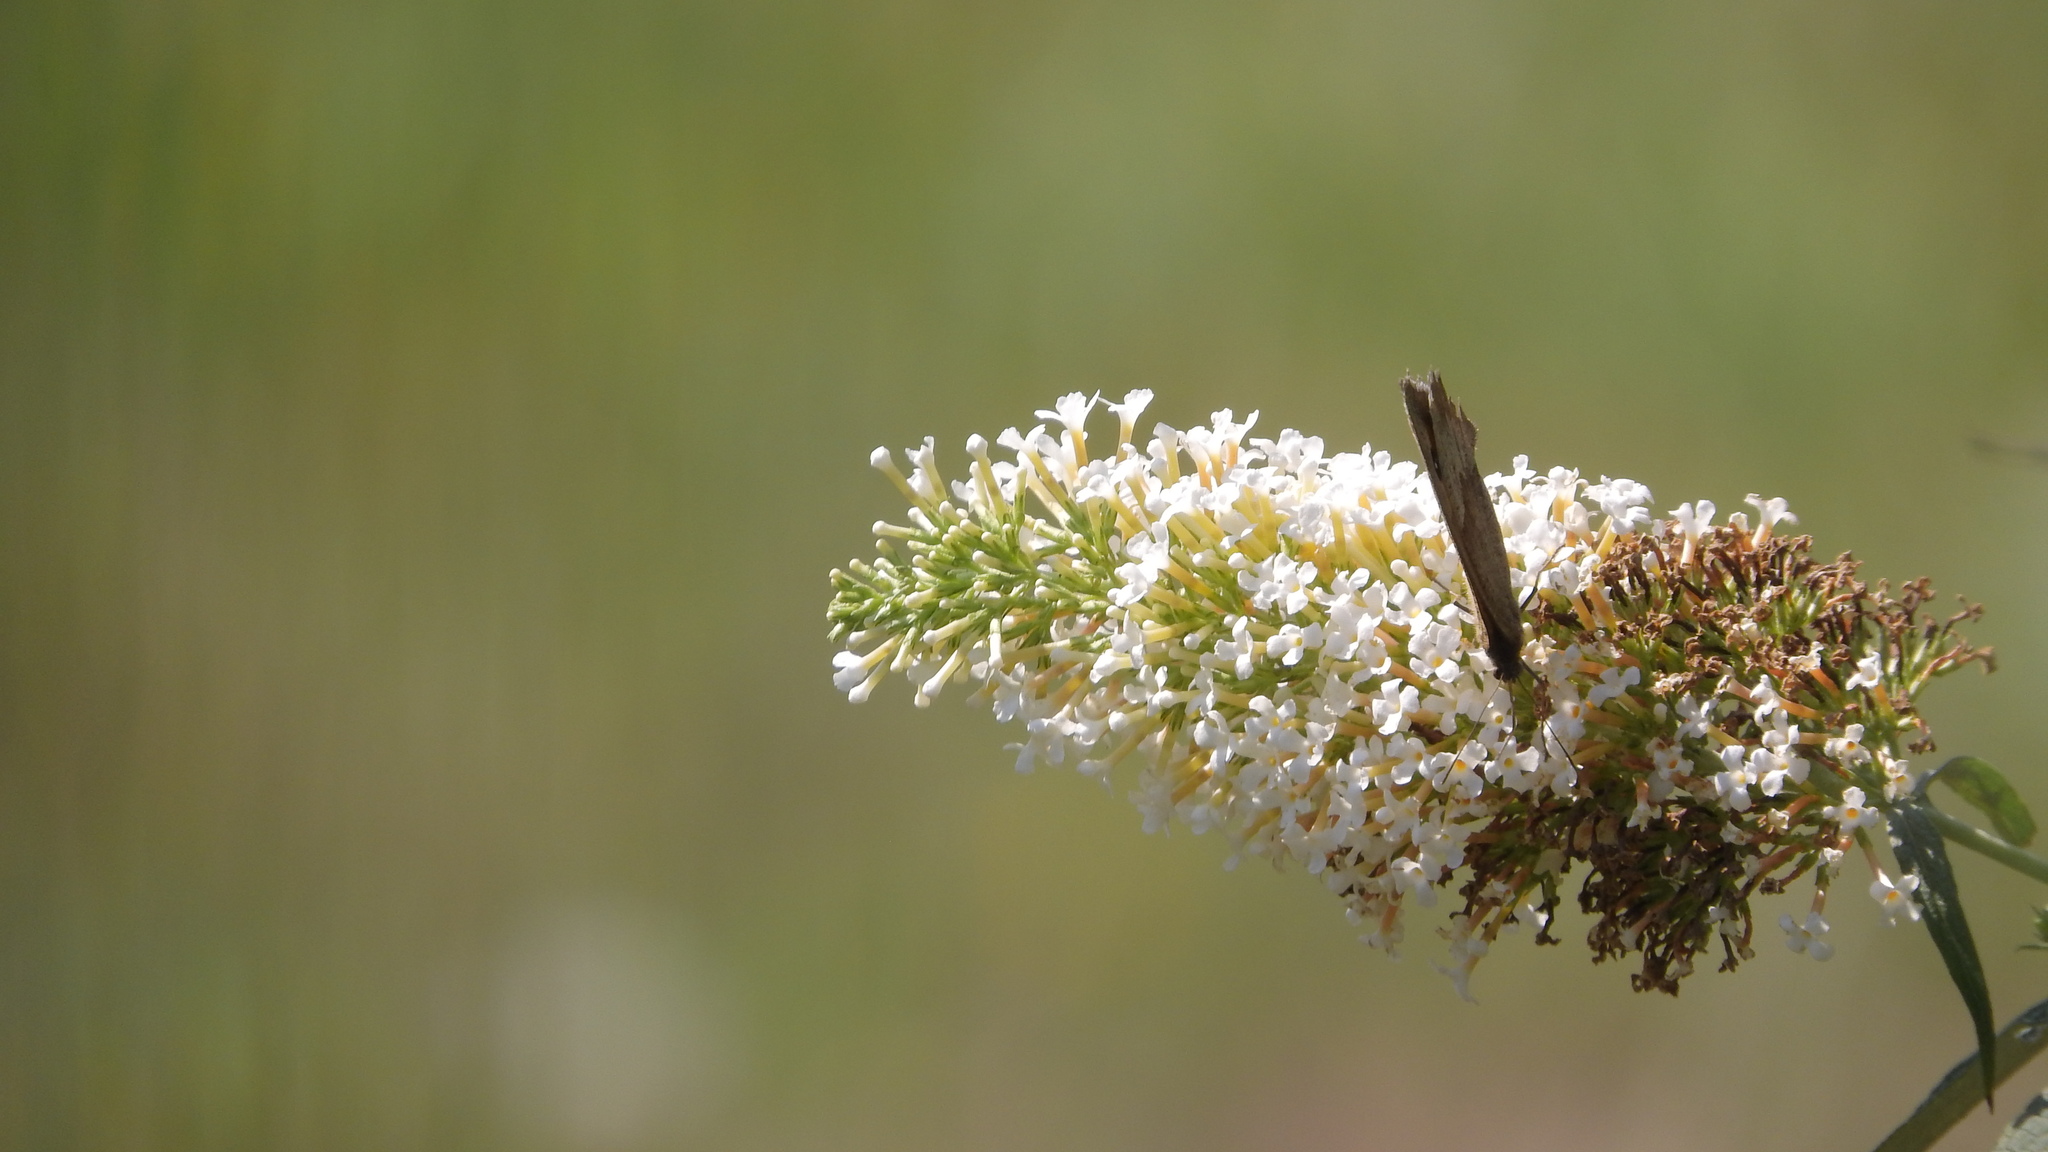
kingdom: Animalia
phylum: Arthropoda
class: Insecta
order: Lepidoptera
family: Nymphalidae
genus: Maniola
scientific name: Maniola jurtina
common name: Meadow brown
